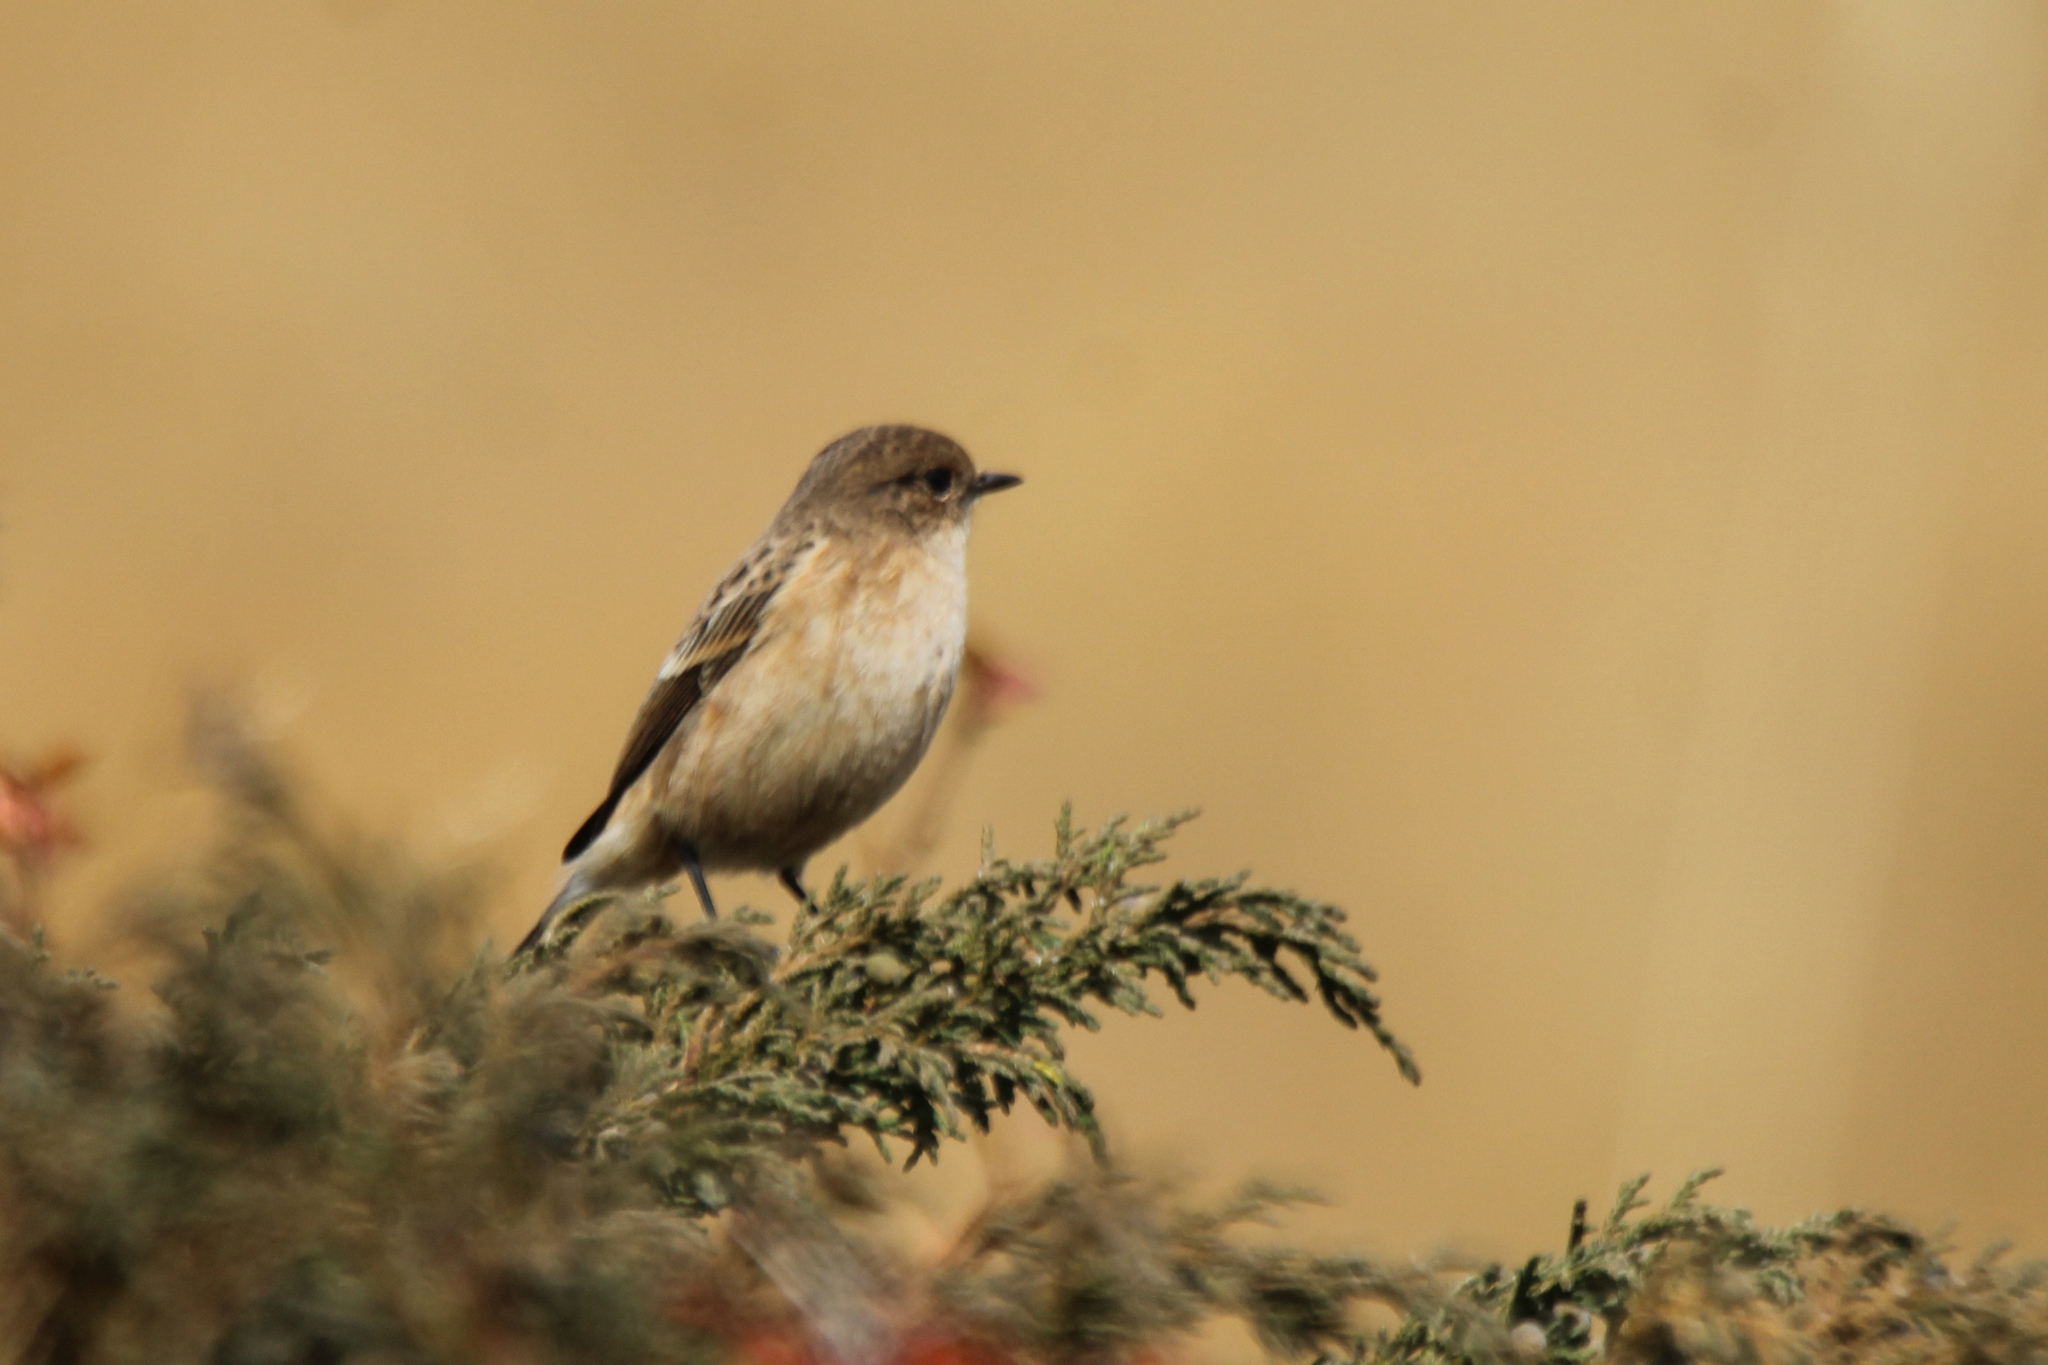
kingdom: Animalia
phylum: Chordata
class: Aves
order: Passeriformes
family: Muscicapidae
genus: Saxicola
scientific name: Saxicola maurus
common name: Siberian stonechat
